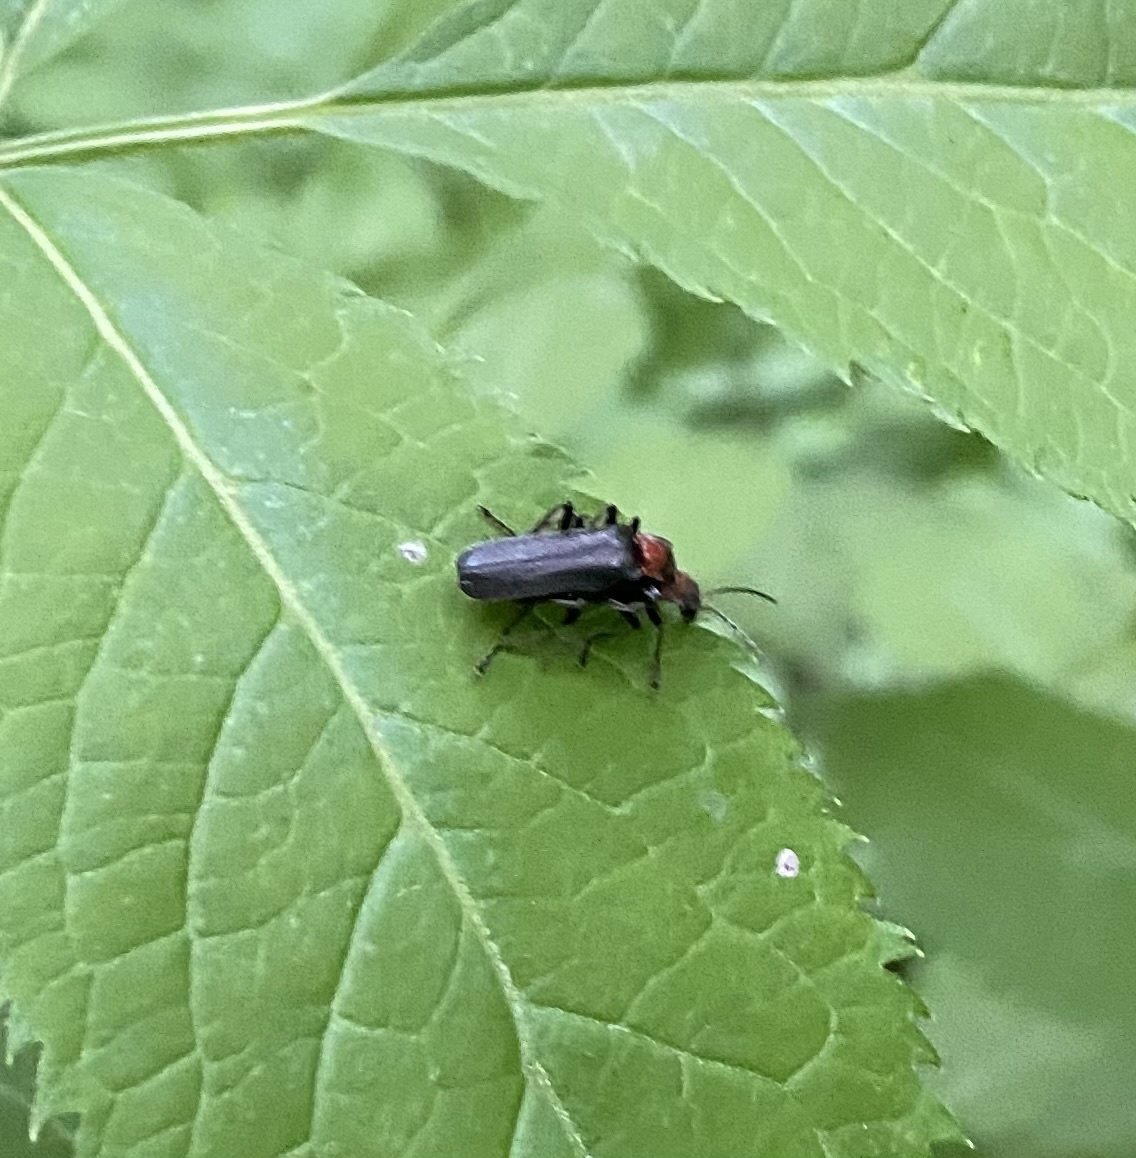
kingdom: Animalia
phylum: Arthropoda
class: Insecta
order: Coleoptera
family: Cantharidae
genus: Cordicantharis
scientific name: Cordicantharis cordicollis
